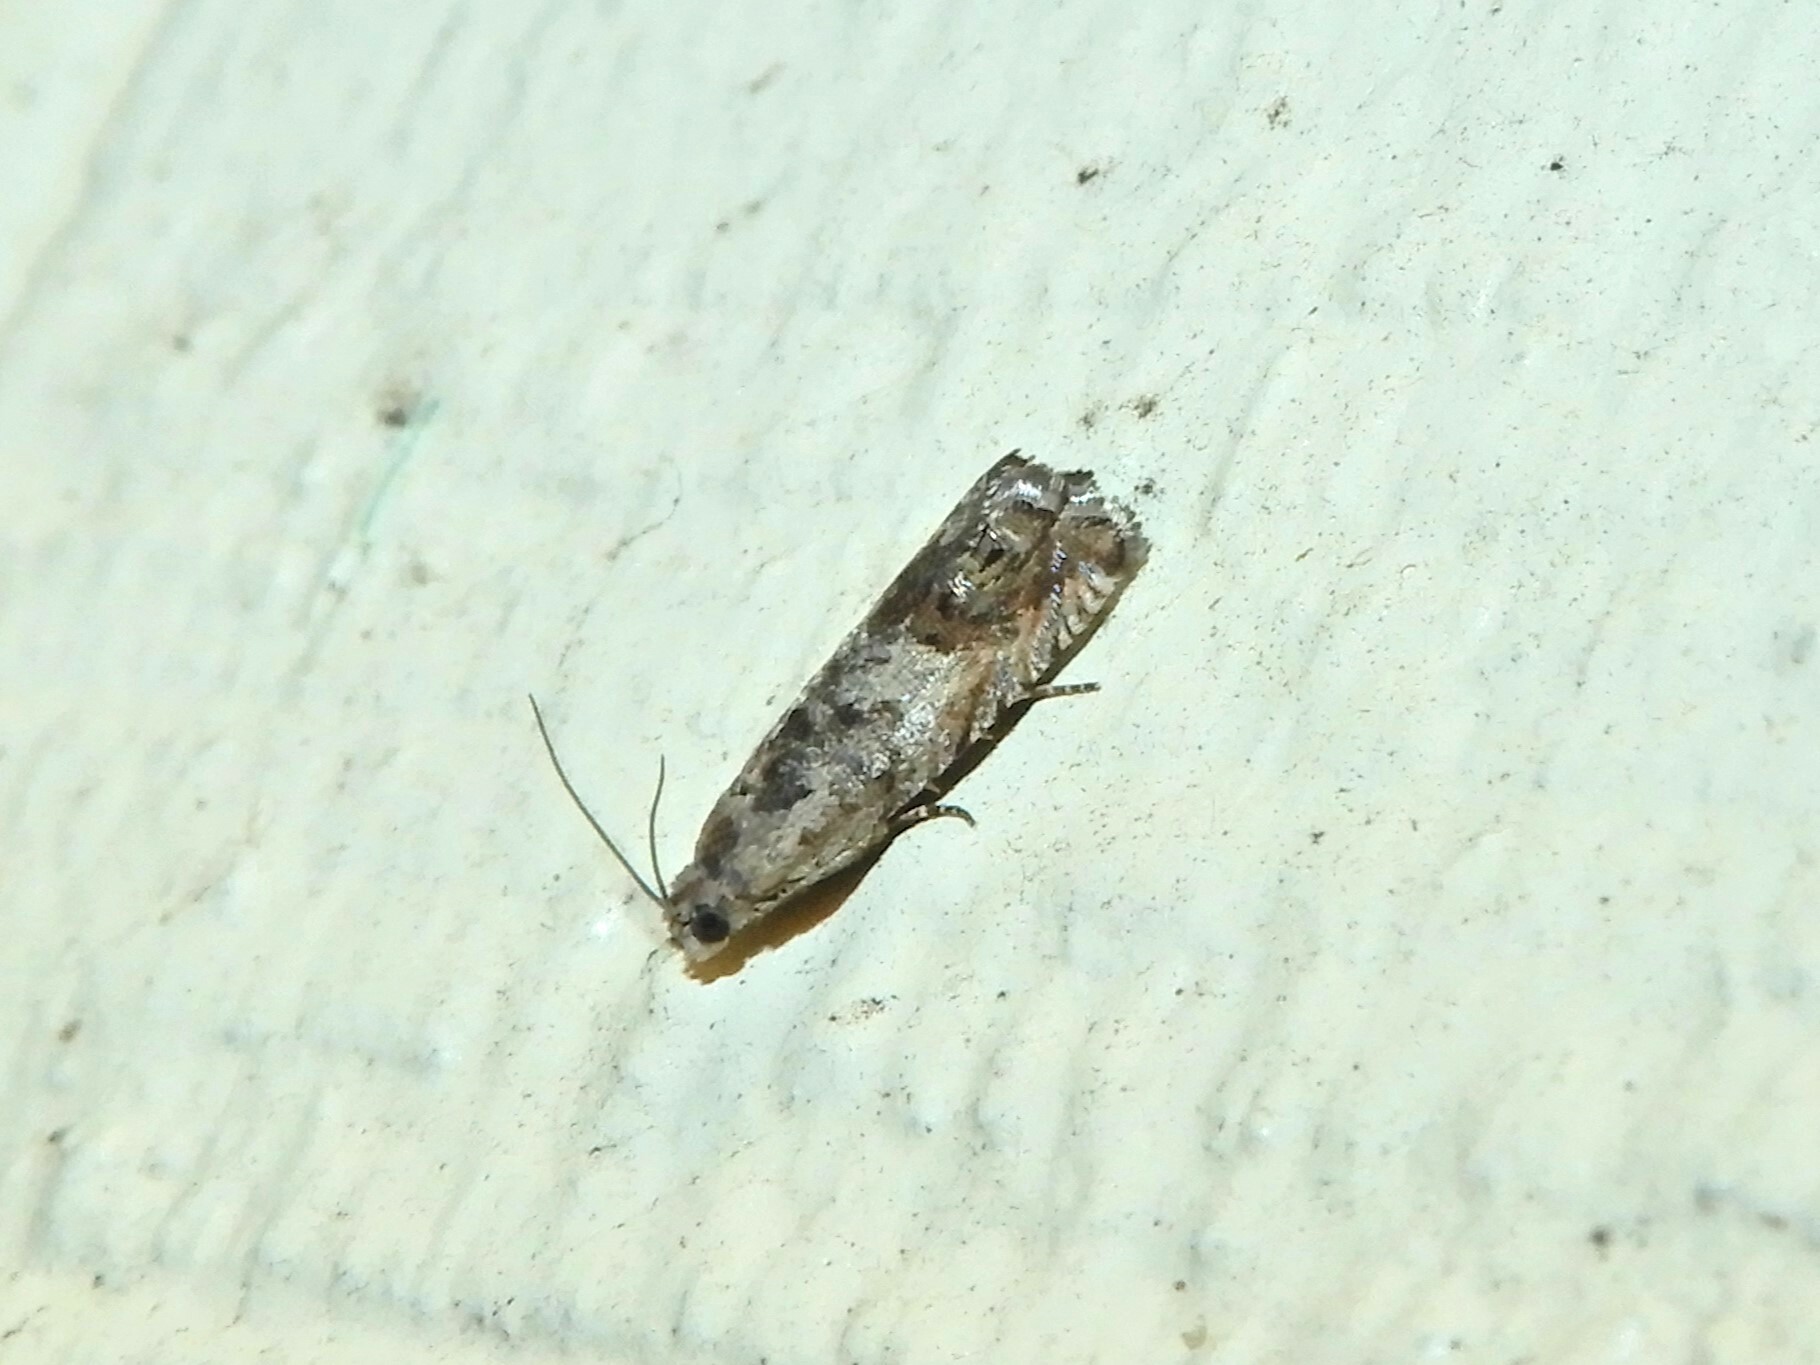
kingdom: Animalia
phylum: Arthropoda
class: Insecta
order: Lepidoptera
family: Tortricidae
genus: Cydia
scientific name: Cydia succedana
